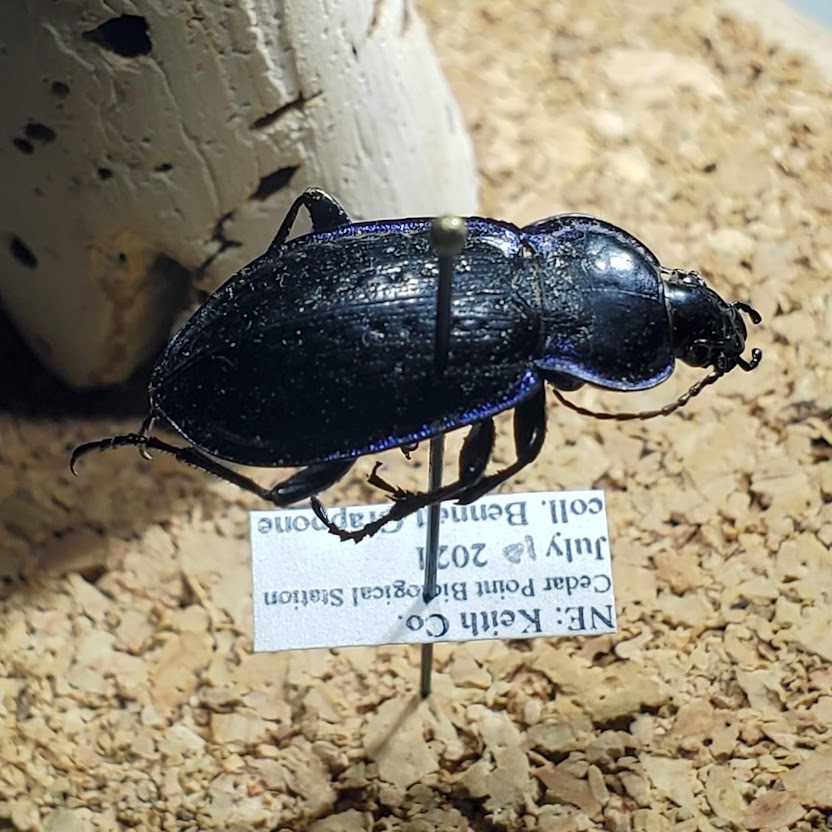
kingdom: Animalia
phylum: Arthropoda
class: Insecta
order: Coleoptera
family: Carabidae
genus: Carabus
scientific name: Carabus serratus
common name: Serrate-shoulder worm and slug hunter
